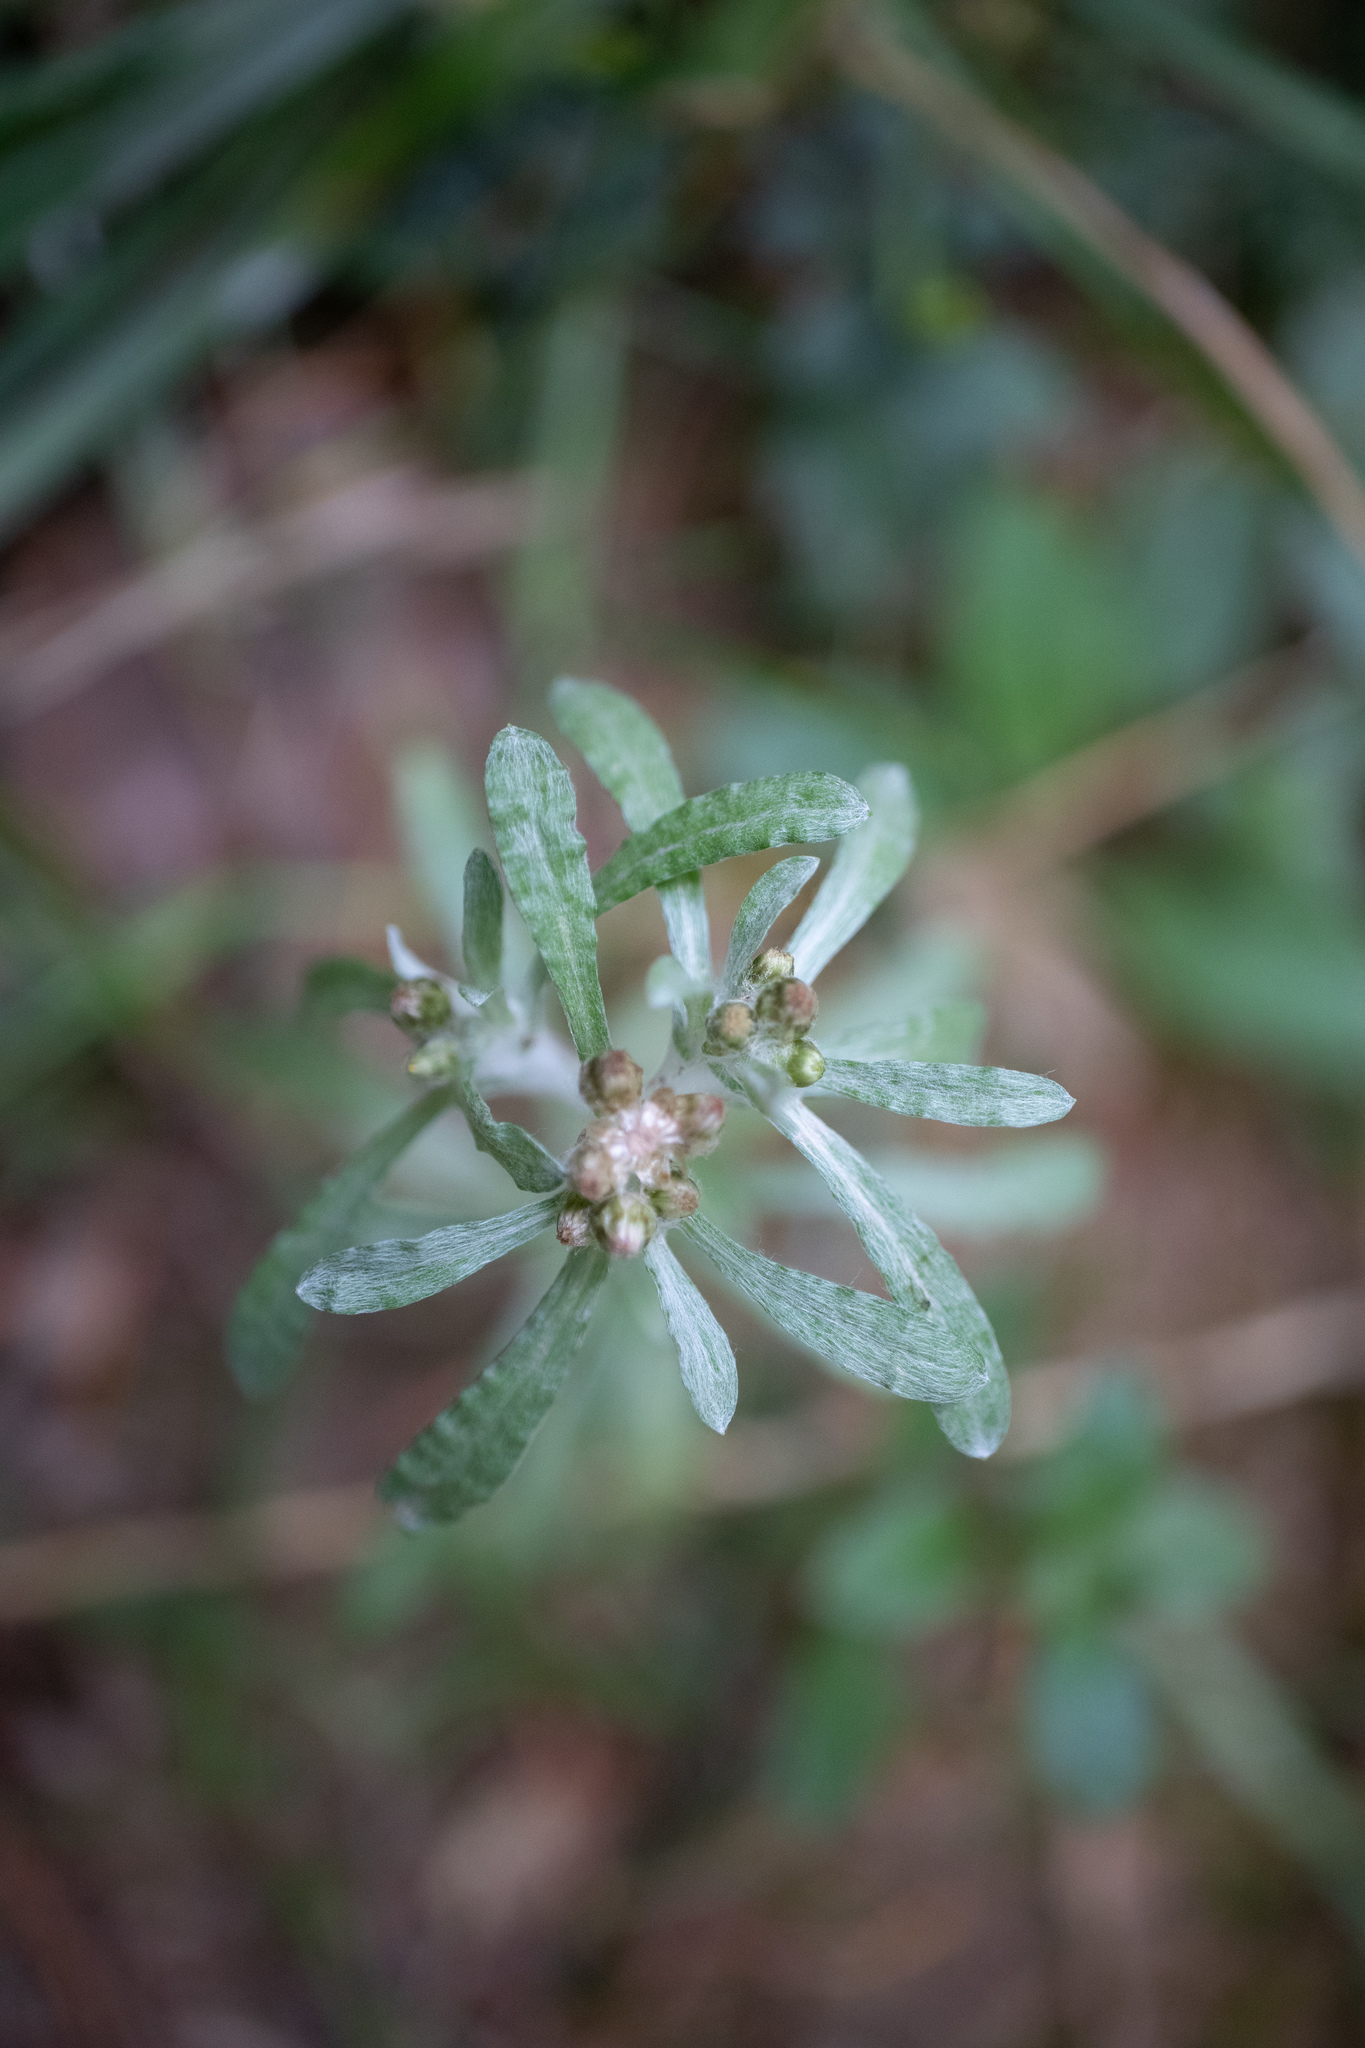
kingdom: Plantae
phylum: Tracheophyta
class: Magnoliopsida
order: Asterales
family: Asteraceae
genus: Gnaphalium
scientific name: Gnaphalium uliginosum
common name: Marsh cudweed
